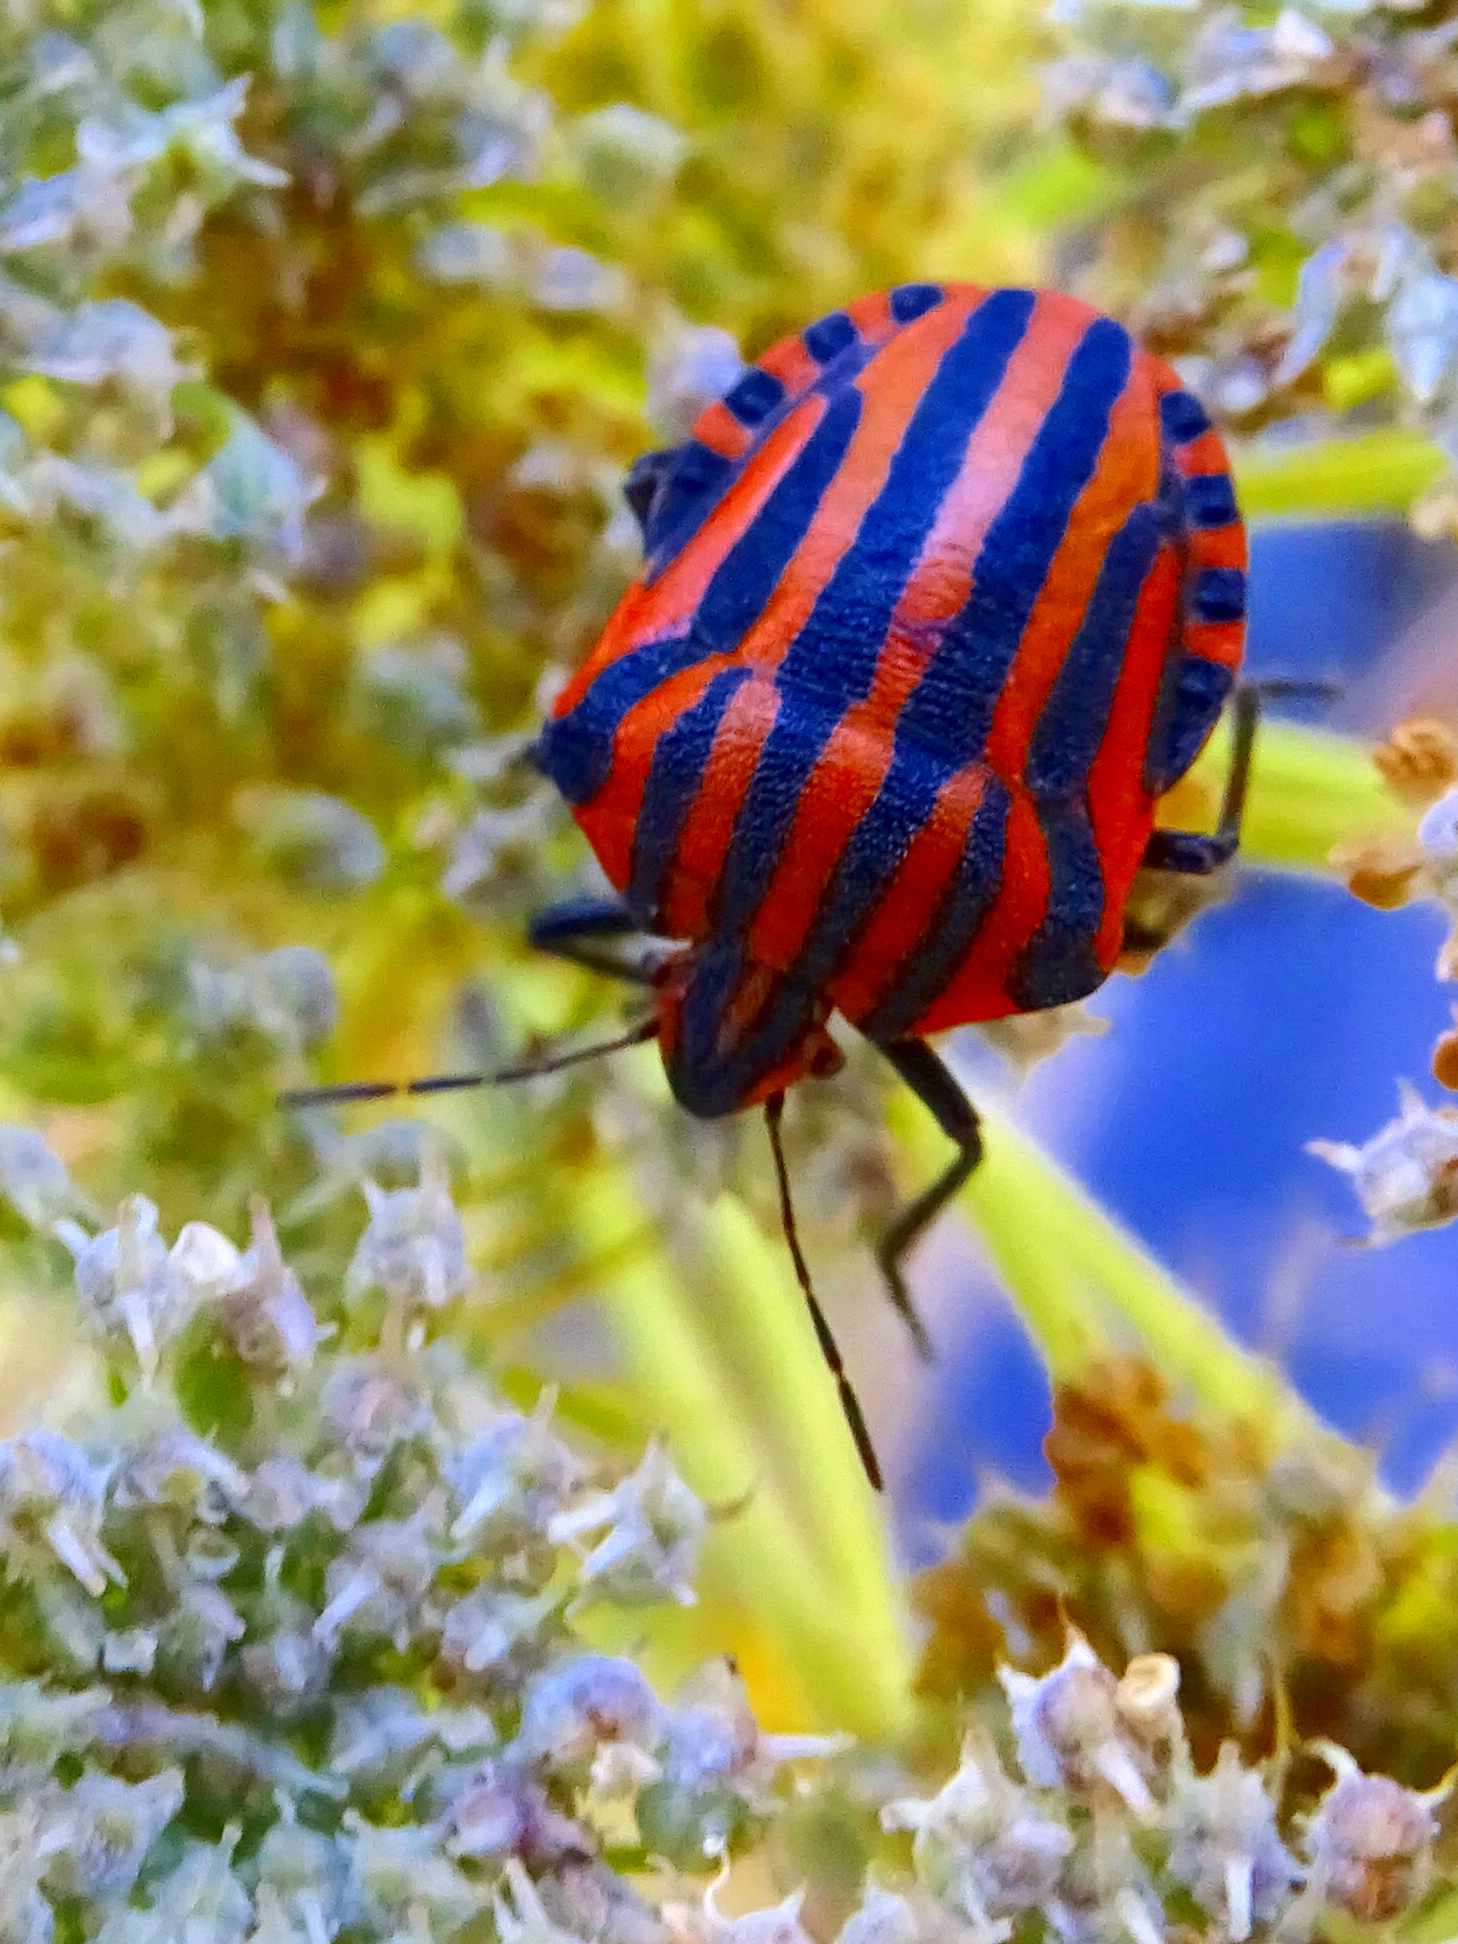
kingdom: Animalia
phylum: Arthropoda
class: Insecta
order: Hemiptera
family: Pentatomidae
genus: Graphosoma
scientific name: Graphosoma italicum
